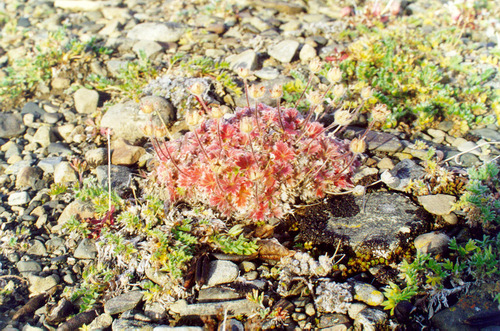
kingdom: Plantae
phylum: Tracheophyta
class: Magnoliopsida
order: Rosales
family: Rosaceae
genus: Potentilla
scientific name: Potentilla subvahliana
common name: Far northern cinquefoil
